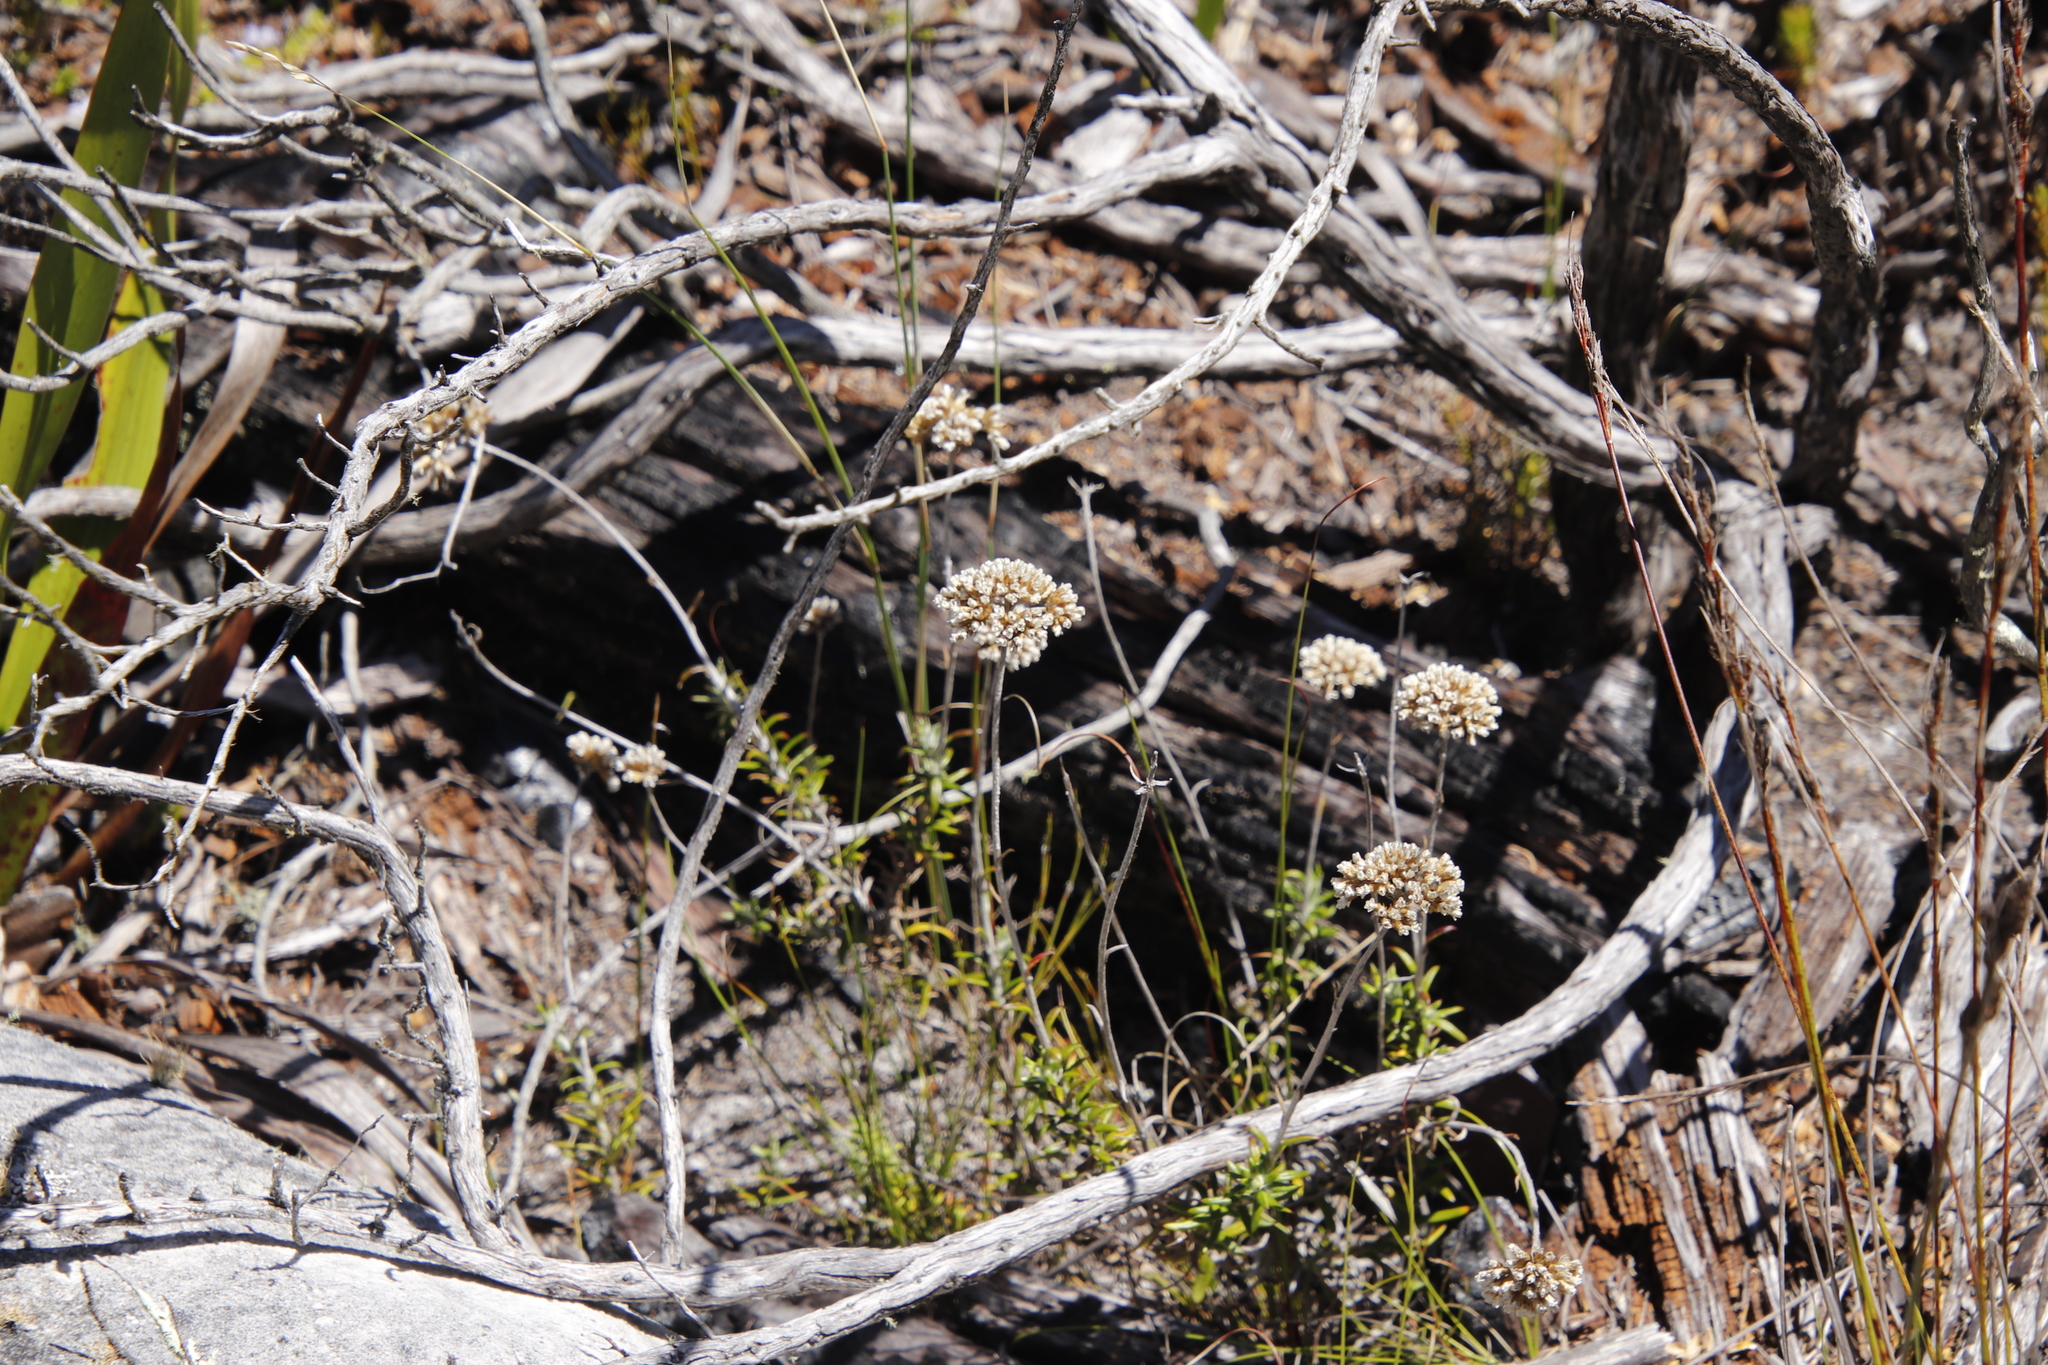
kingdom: Plantae
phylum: Tracheophyta
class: Magnoliopsida
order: Asterales
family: Asteraceae
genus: Anaxeton
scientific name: Anaxeton arborescens
